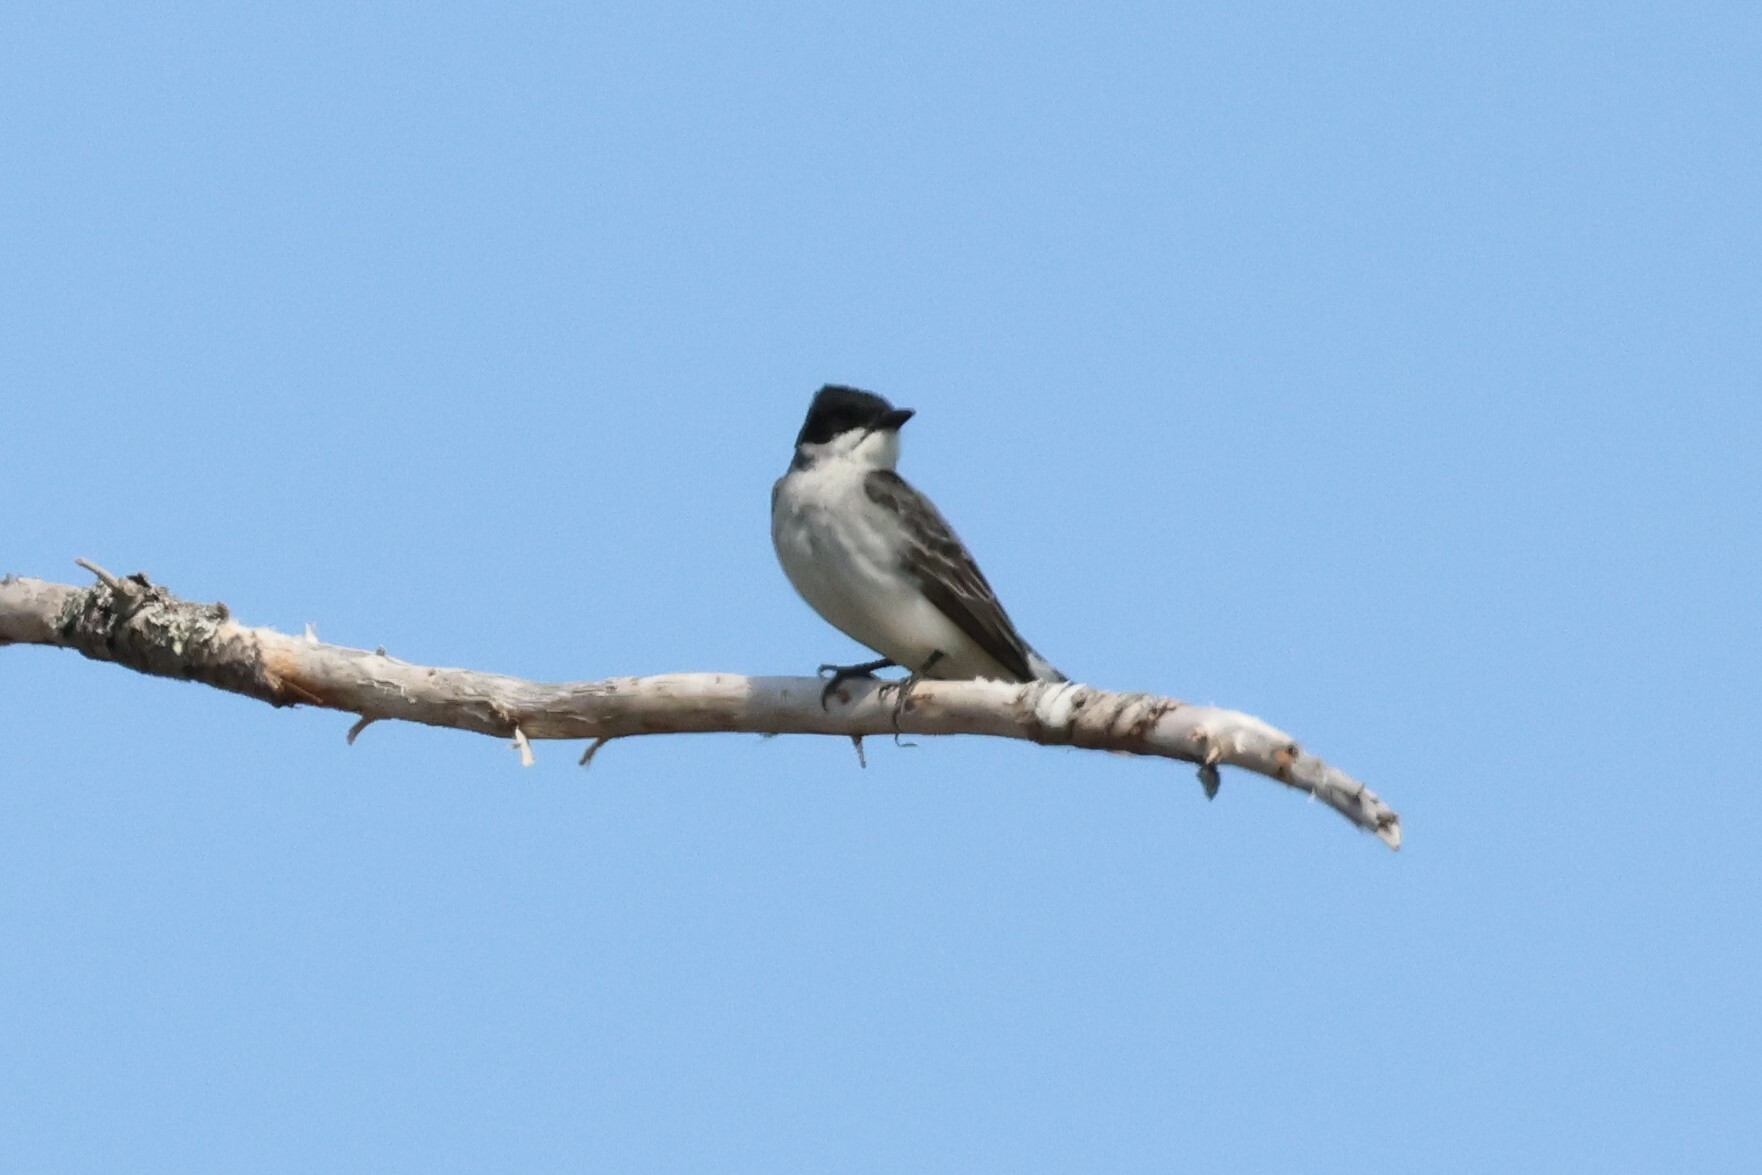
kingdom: Animalia
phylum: Chordata
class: Aves
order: Passeriformes
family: Tyrannidae
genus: Tyrannus
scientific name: Tyrannus tyrannus
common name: Eastern kingbird
